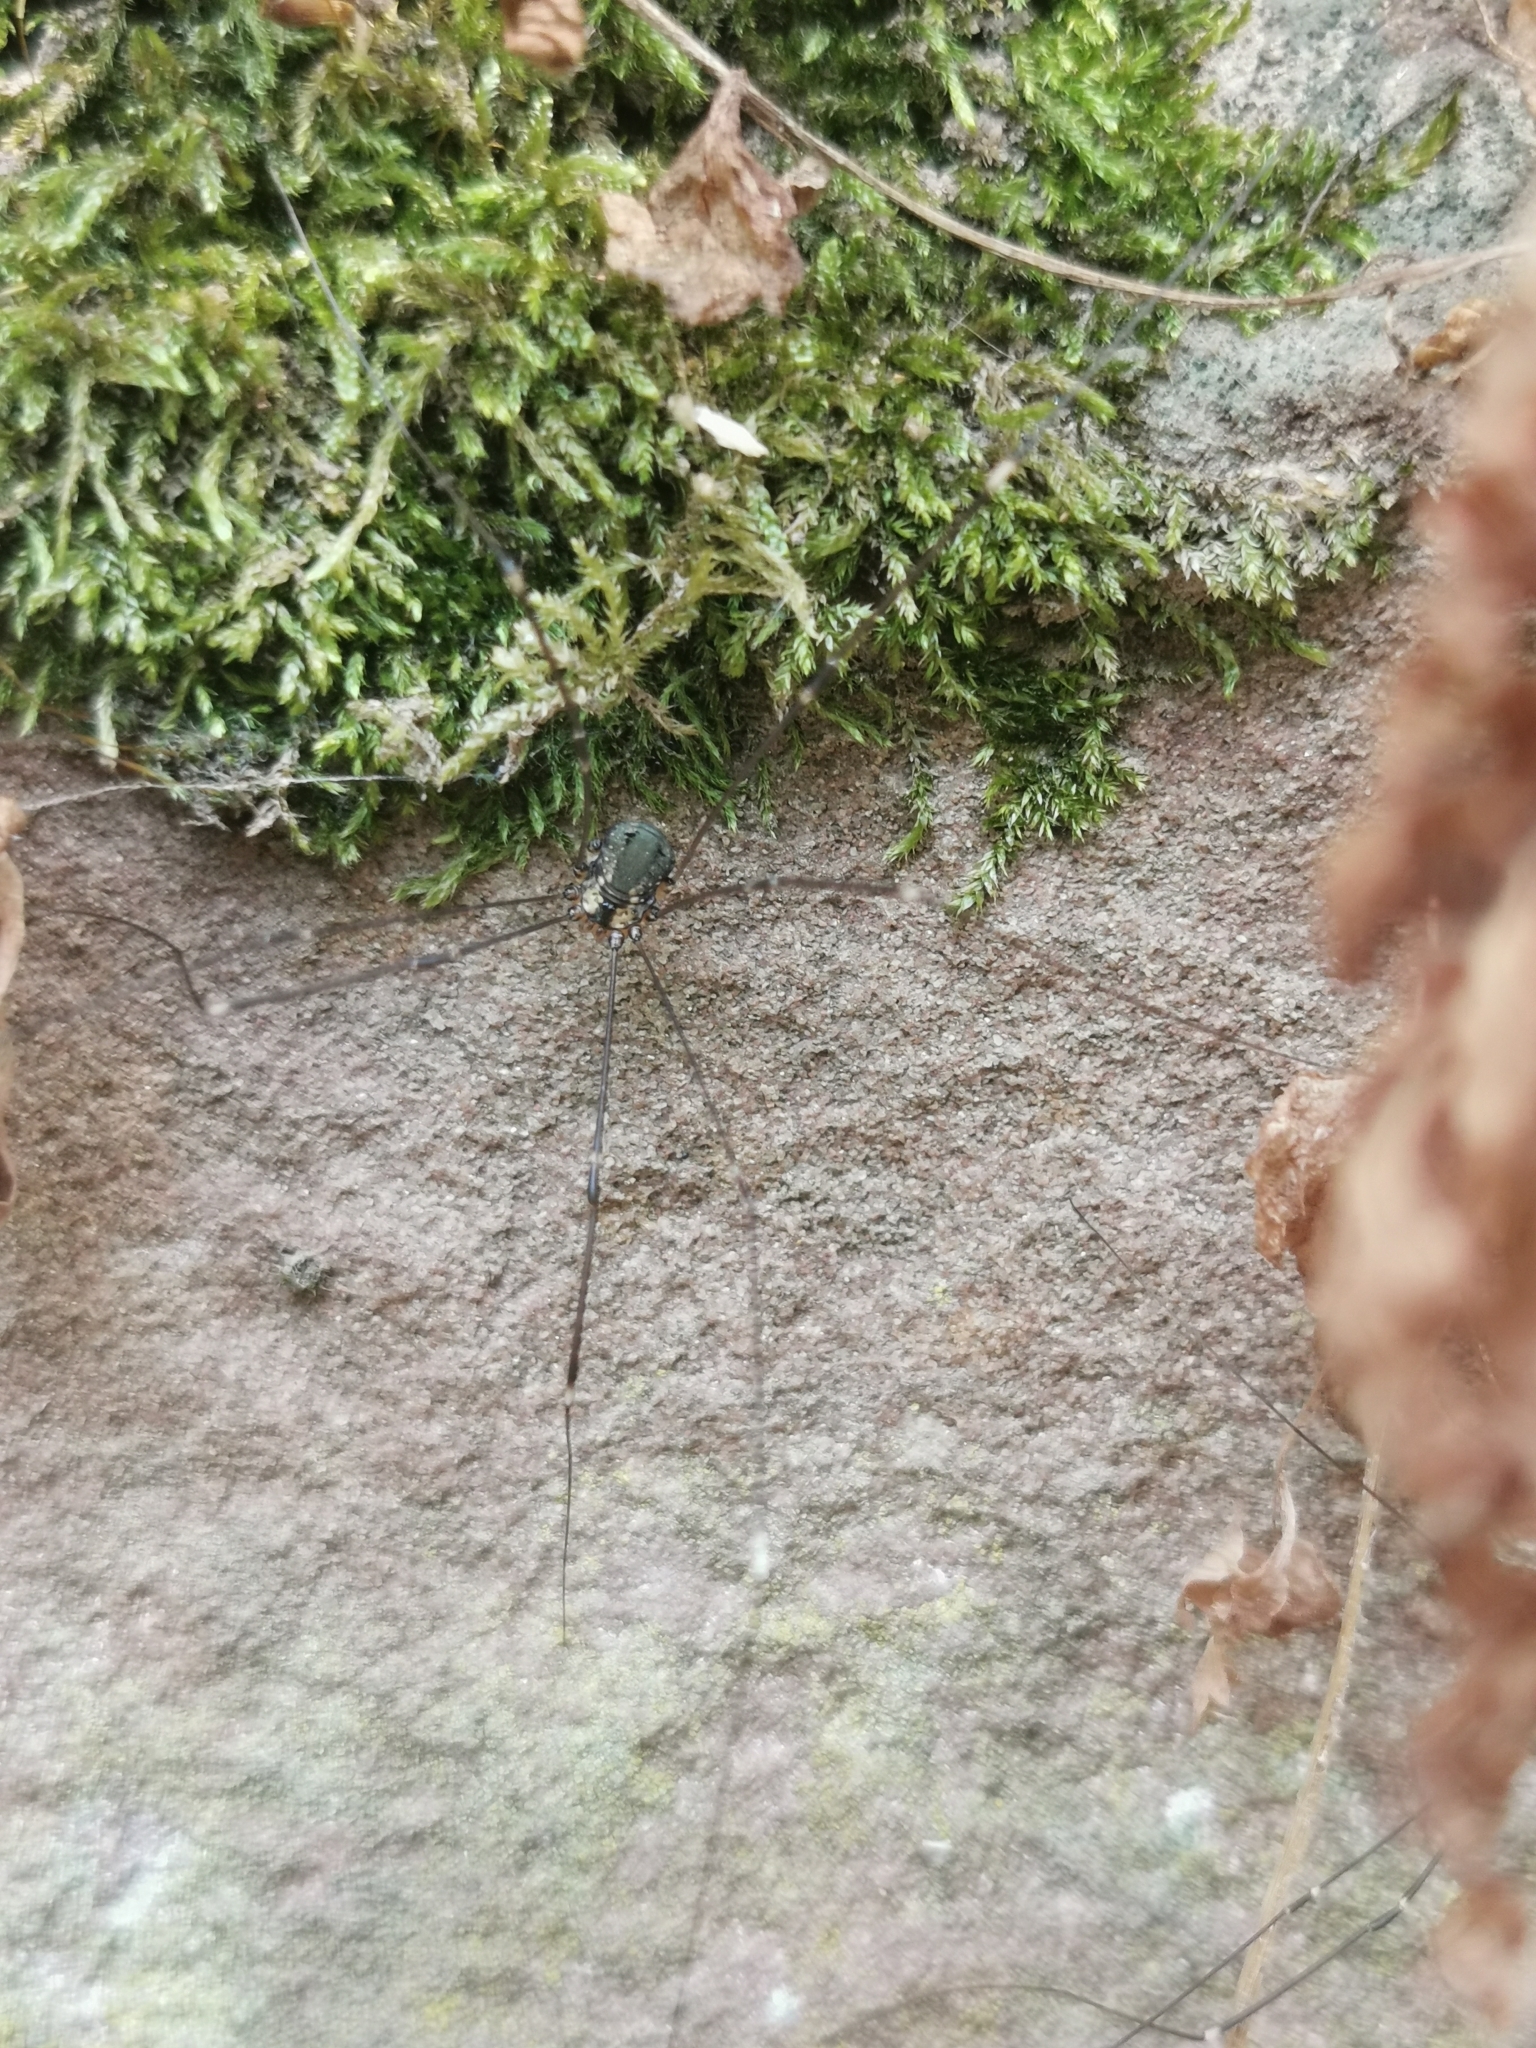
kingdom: Animalia
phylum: Arthropoda
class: Arachnida
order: Opiliones
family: Sclerosomatidae
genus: Leiobunum
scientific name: Leiobunum
